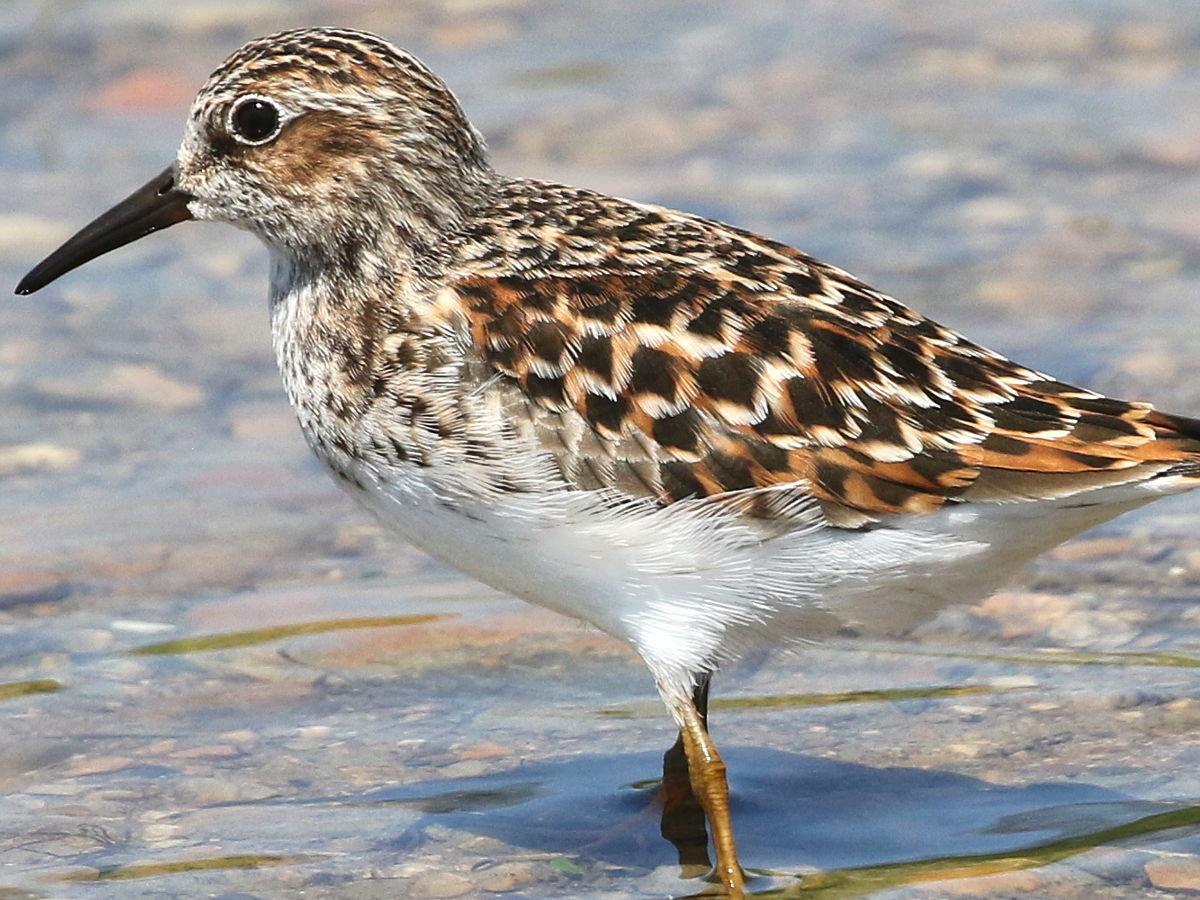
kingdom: Animalia
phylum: Chordata
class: Aves
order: Charadriiformes
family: Scolopacidae
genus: Calidris
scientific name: Calidris minutilla
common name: Least sandpiper
